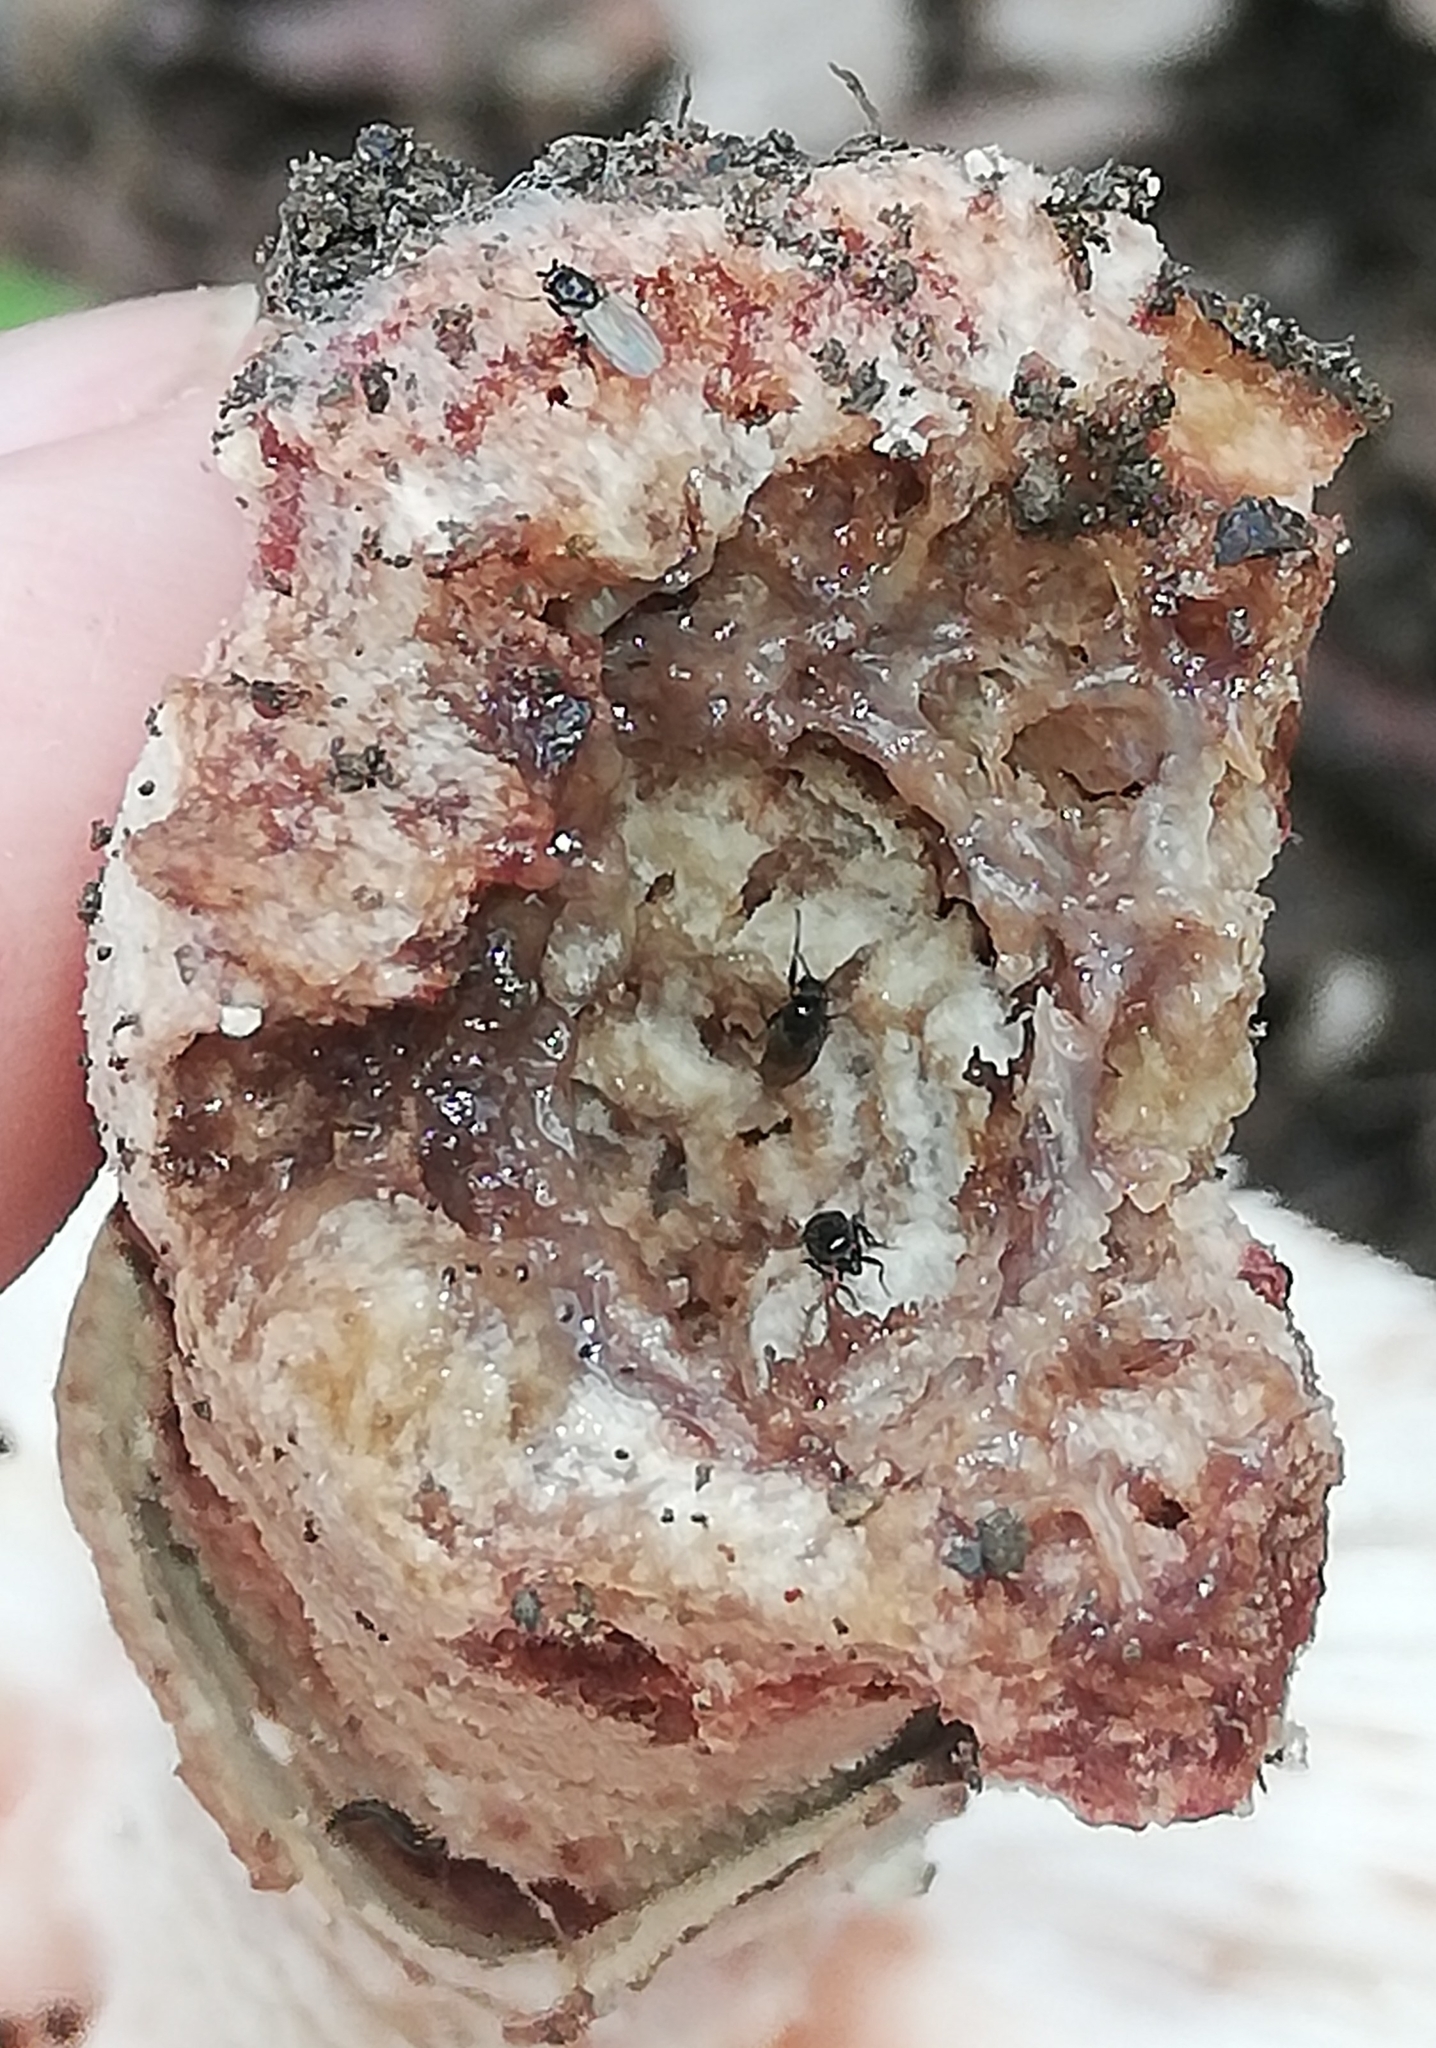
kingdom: Fungi
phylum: Basidiomycota
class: Agaricomycetes
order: Agaricales
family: Amanitaceae
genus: Amanita
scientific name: Amanita rubescens
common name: Blusher
